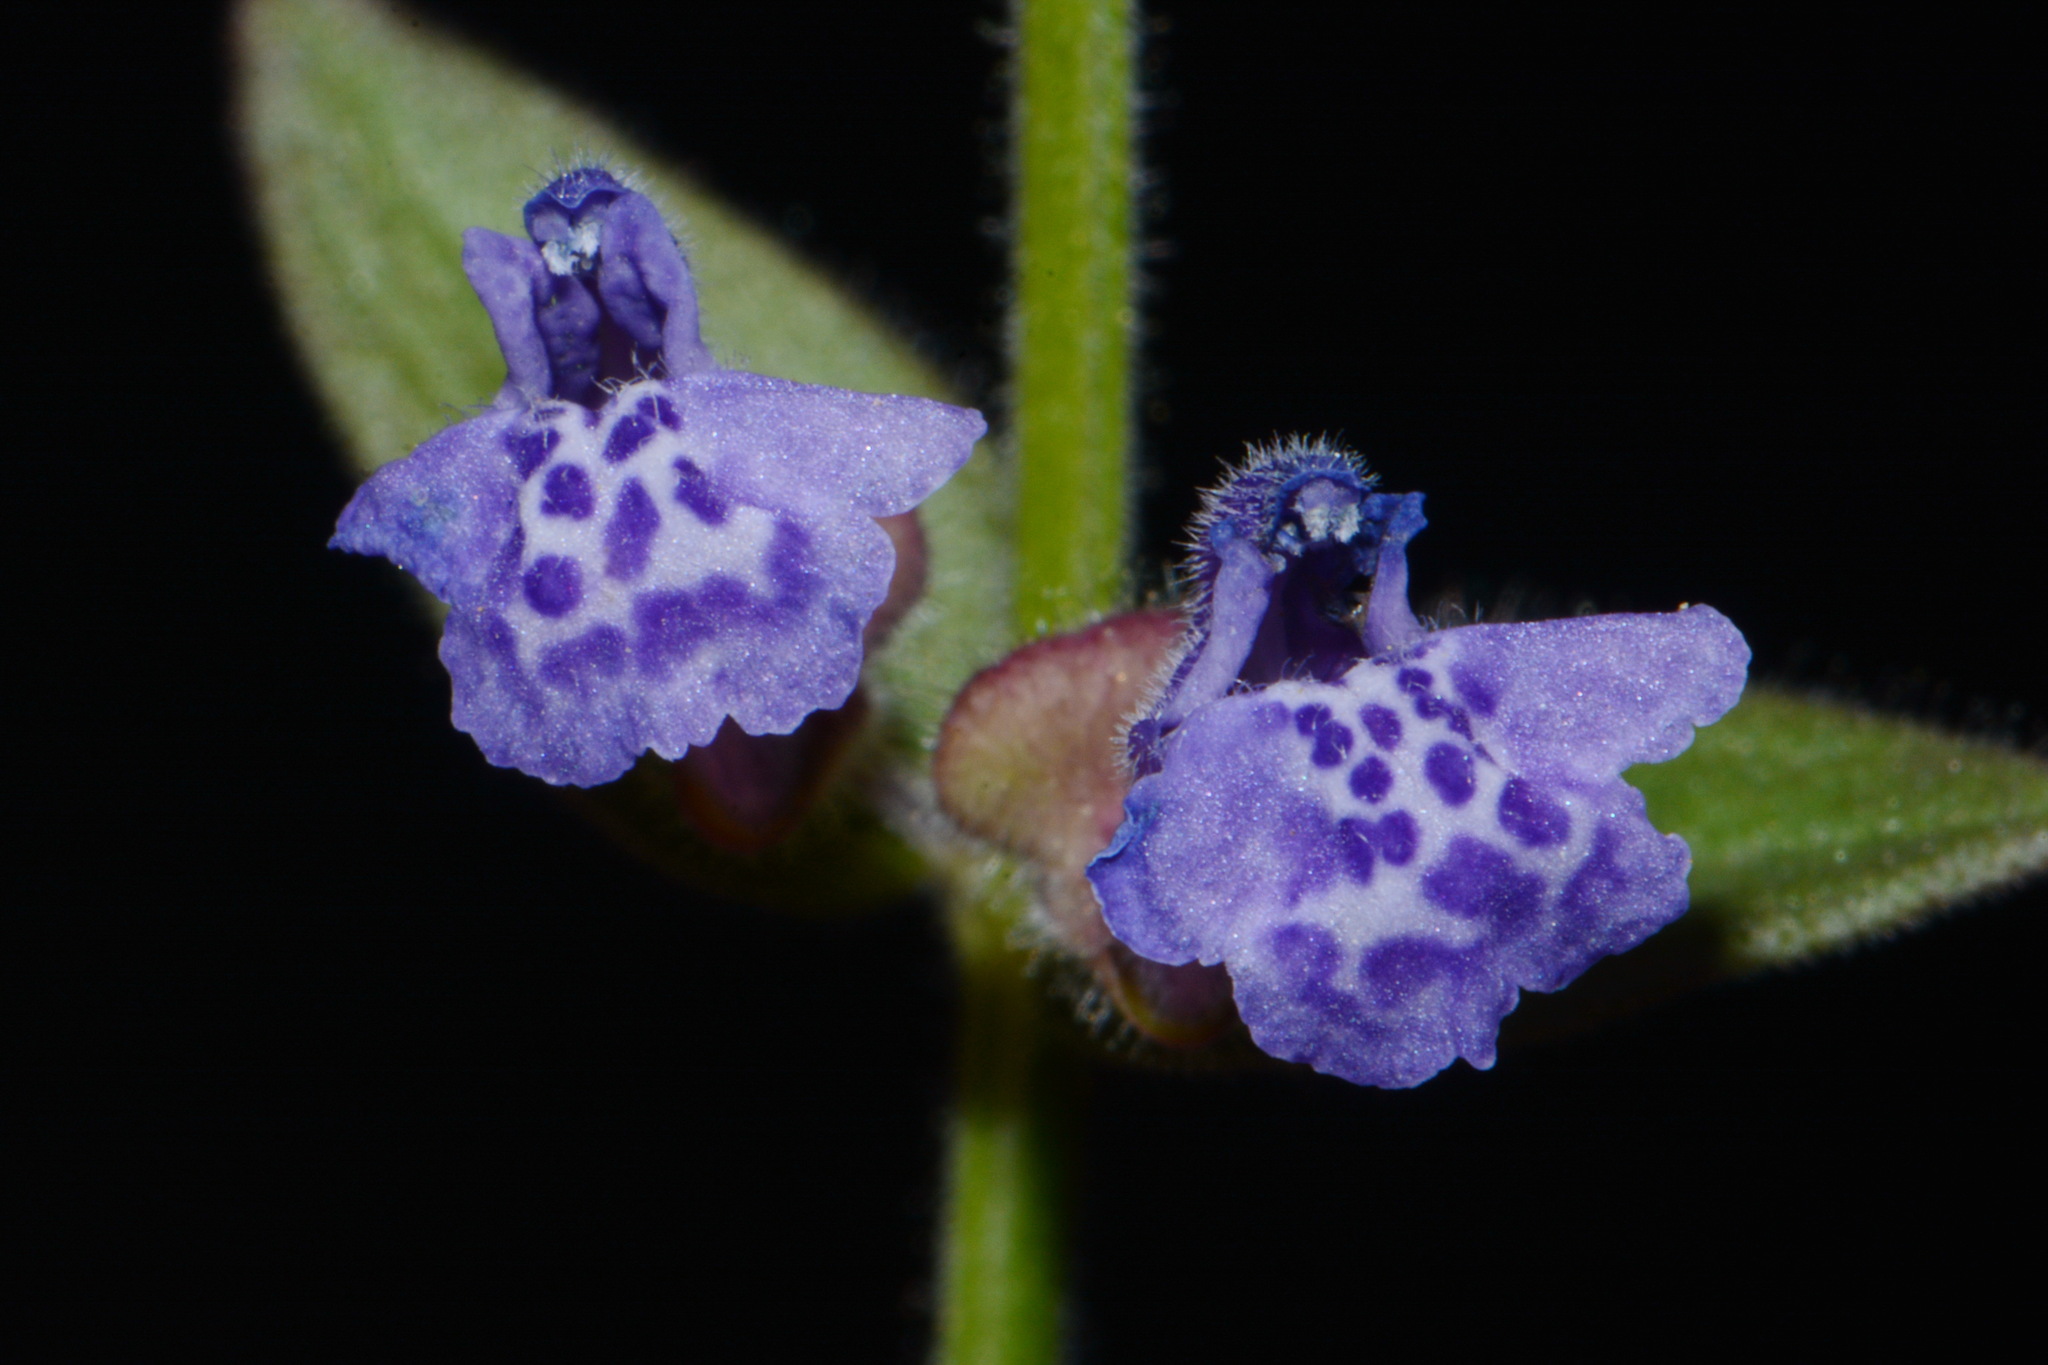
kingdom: Plantae
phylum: Tracheophyta
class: Magnoliopsida
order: Lamiales
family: Lamiaceae
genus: Scutellaria
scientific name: Scutellaria parvula
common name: Little scullcap
